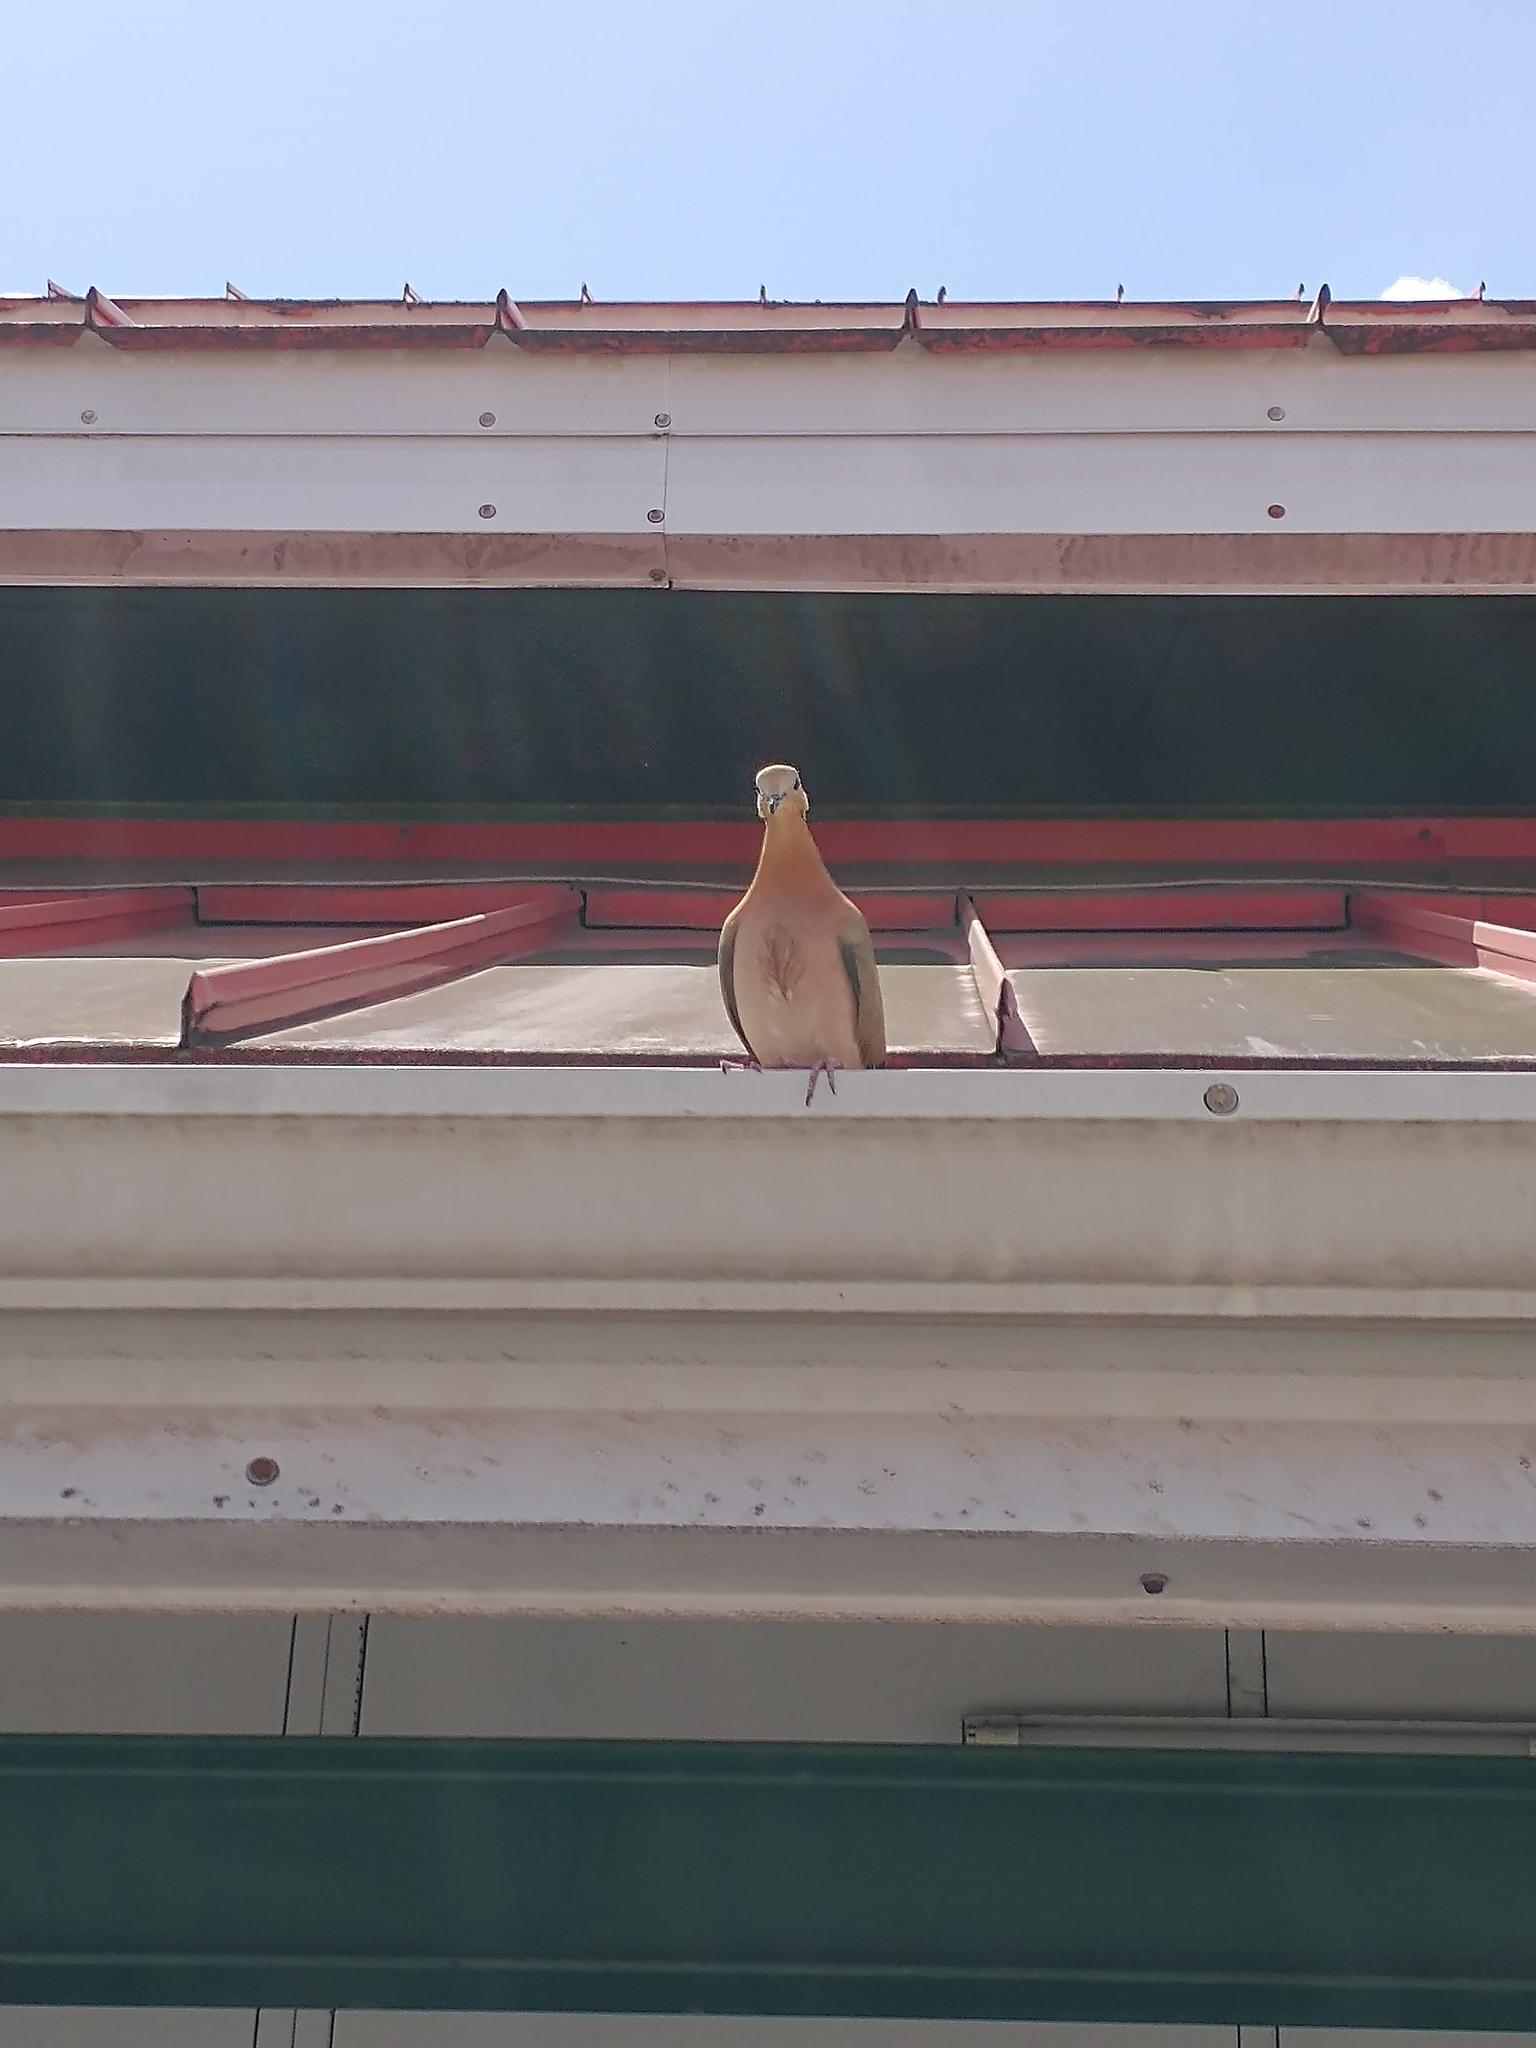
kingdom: Animalia
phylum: Chordata
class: Aves
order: Columbiformes
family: Columbidae
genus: Zenaida
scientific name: Zenaida aurita
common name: Zenaida dove
